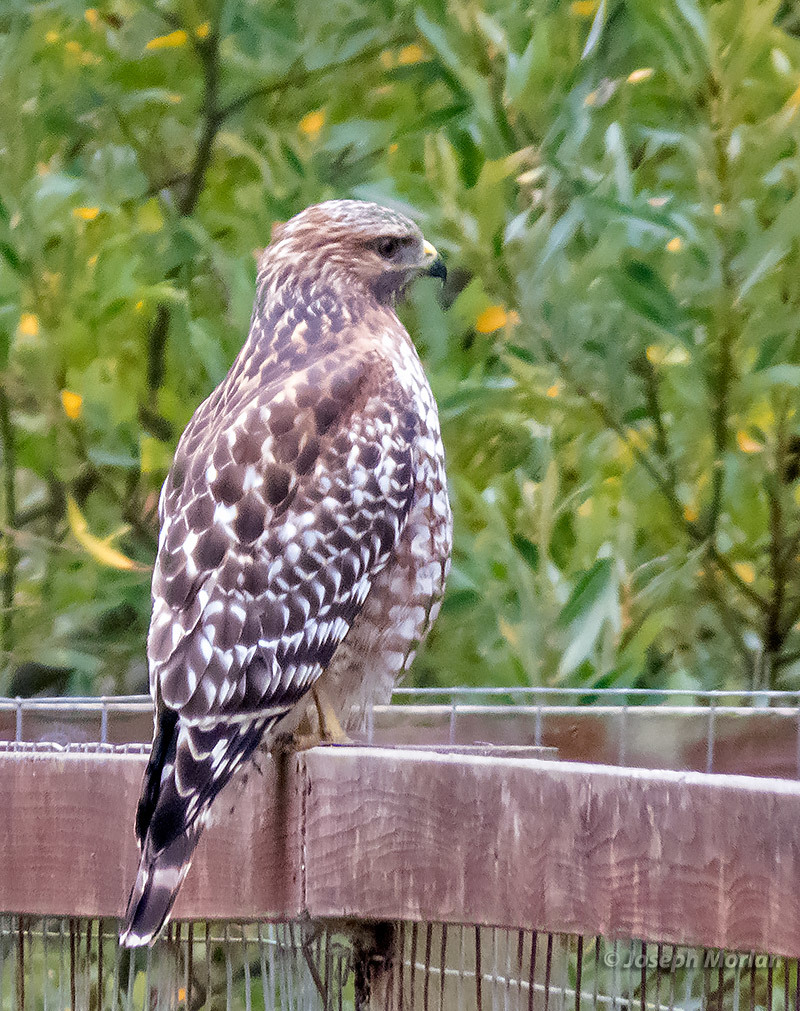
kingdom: Animalia
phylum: Chordata
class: Aves
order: Accipitriformes
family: Accipitridae
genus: Buteo
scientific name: Buteo lineatus
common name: Red-shouldered hawk
